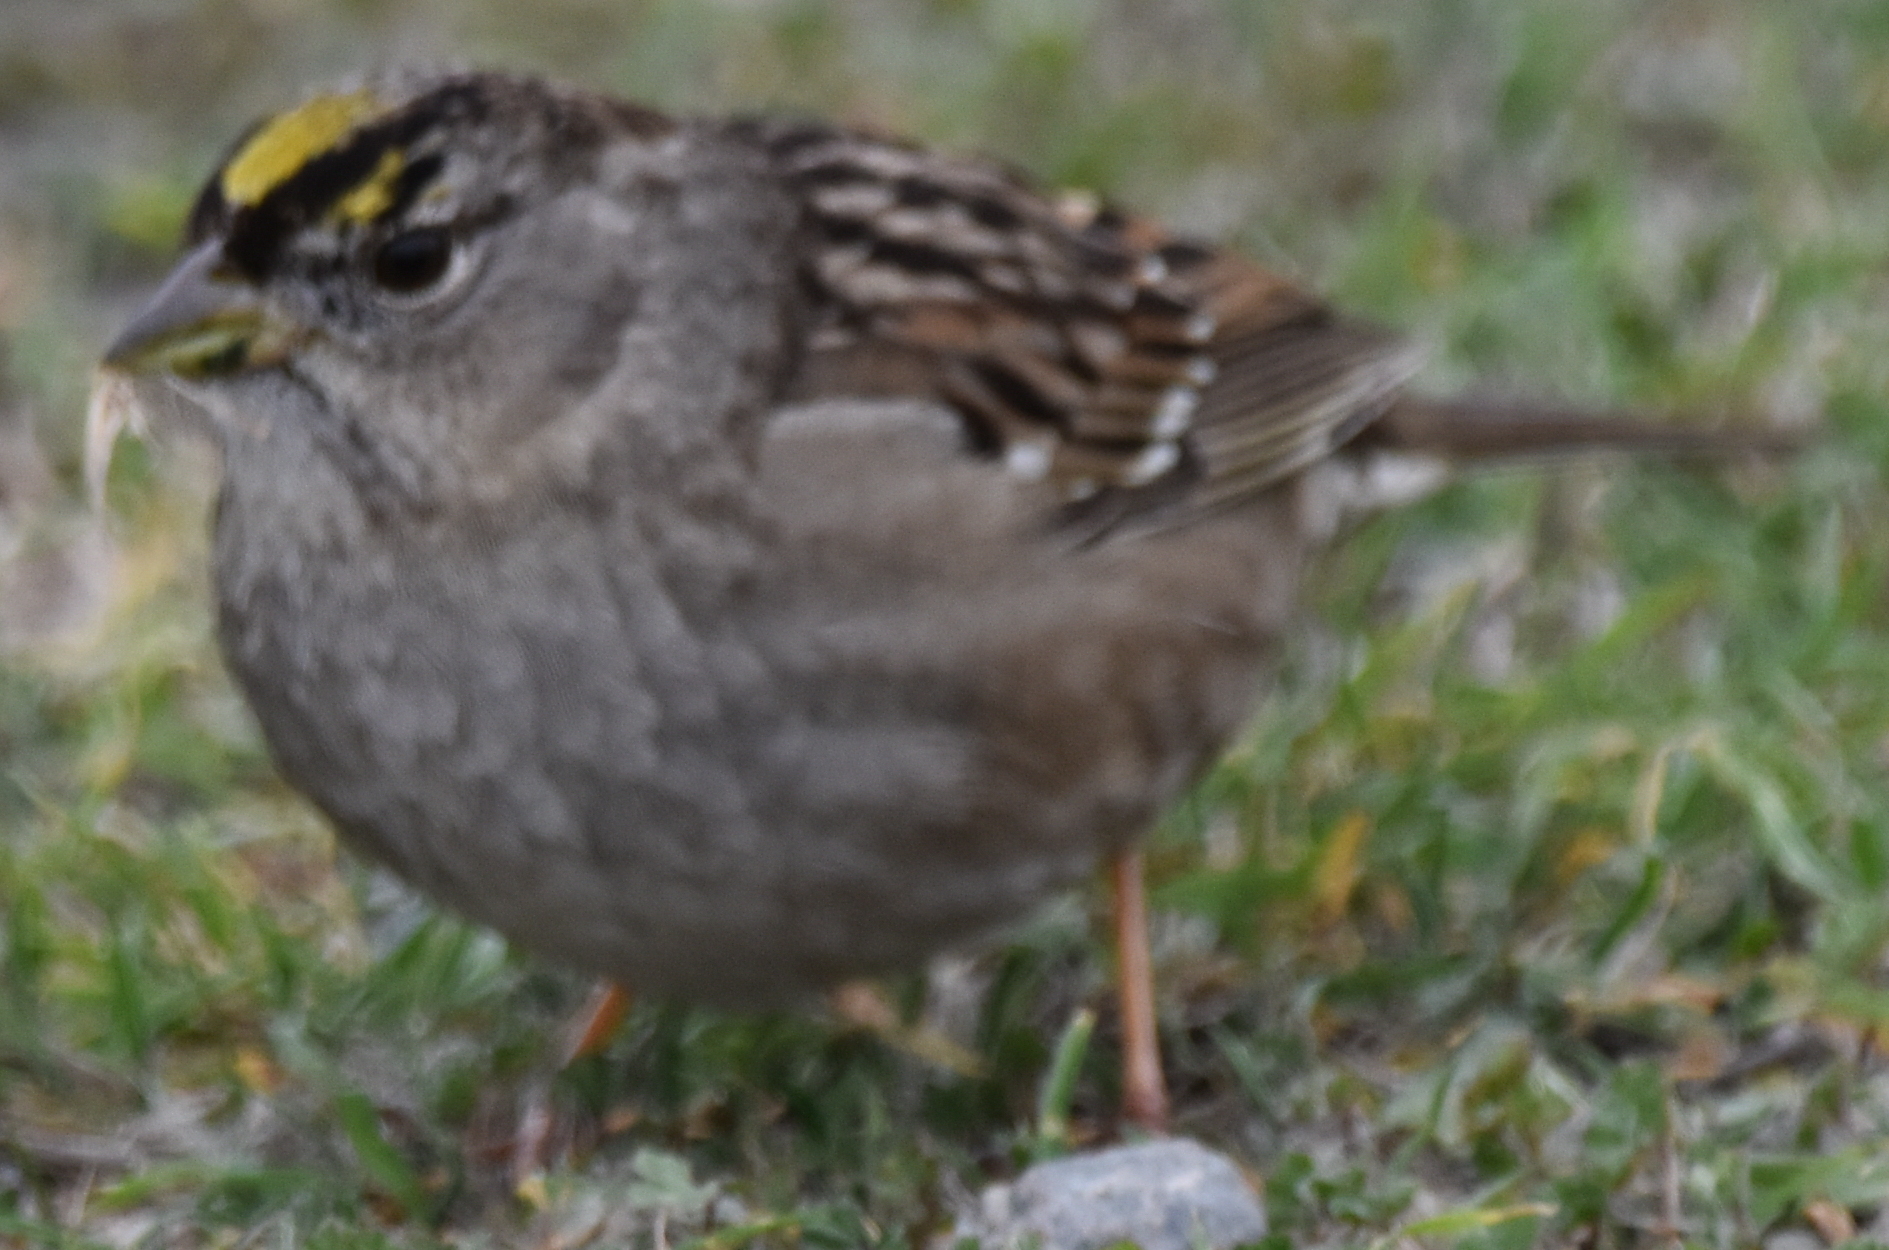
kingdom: Animalia
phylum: Chordata
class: Aves
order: Passeriformes
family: Passerellidae
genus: Zonotrichia
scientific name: Zonotrichia atricapilla
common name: Golden-crowned sparrow
